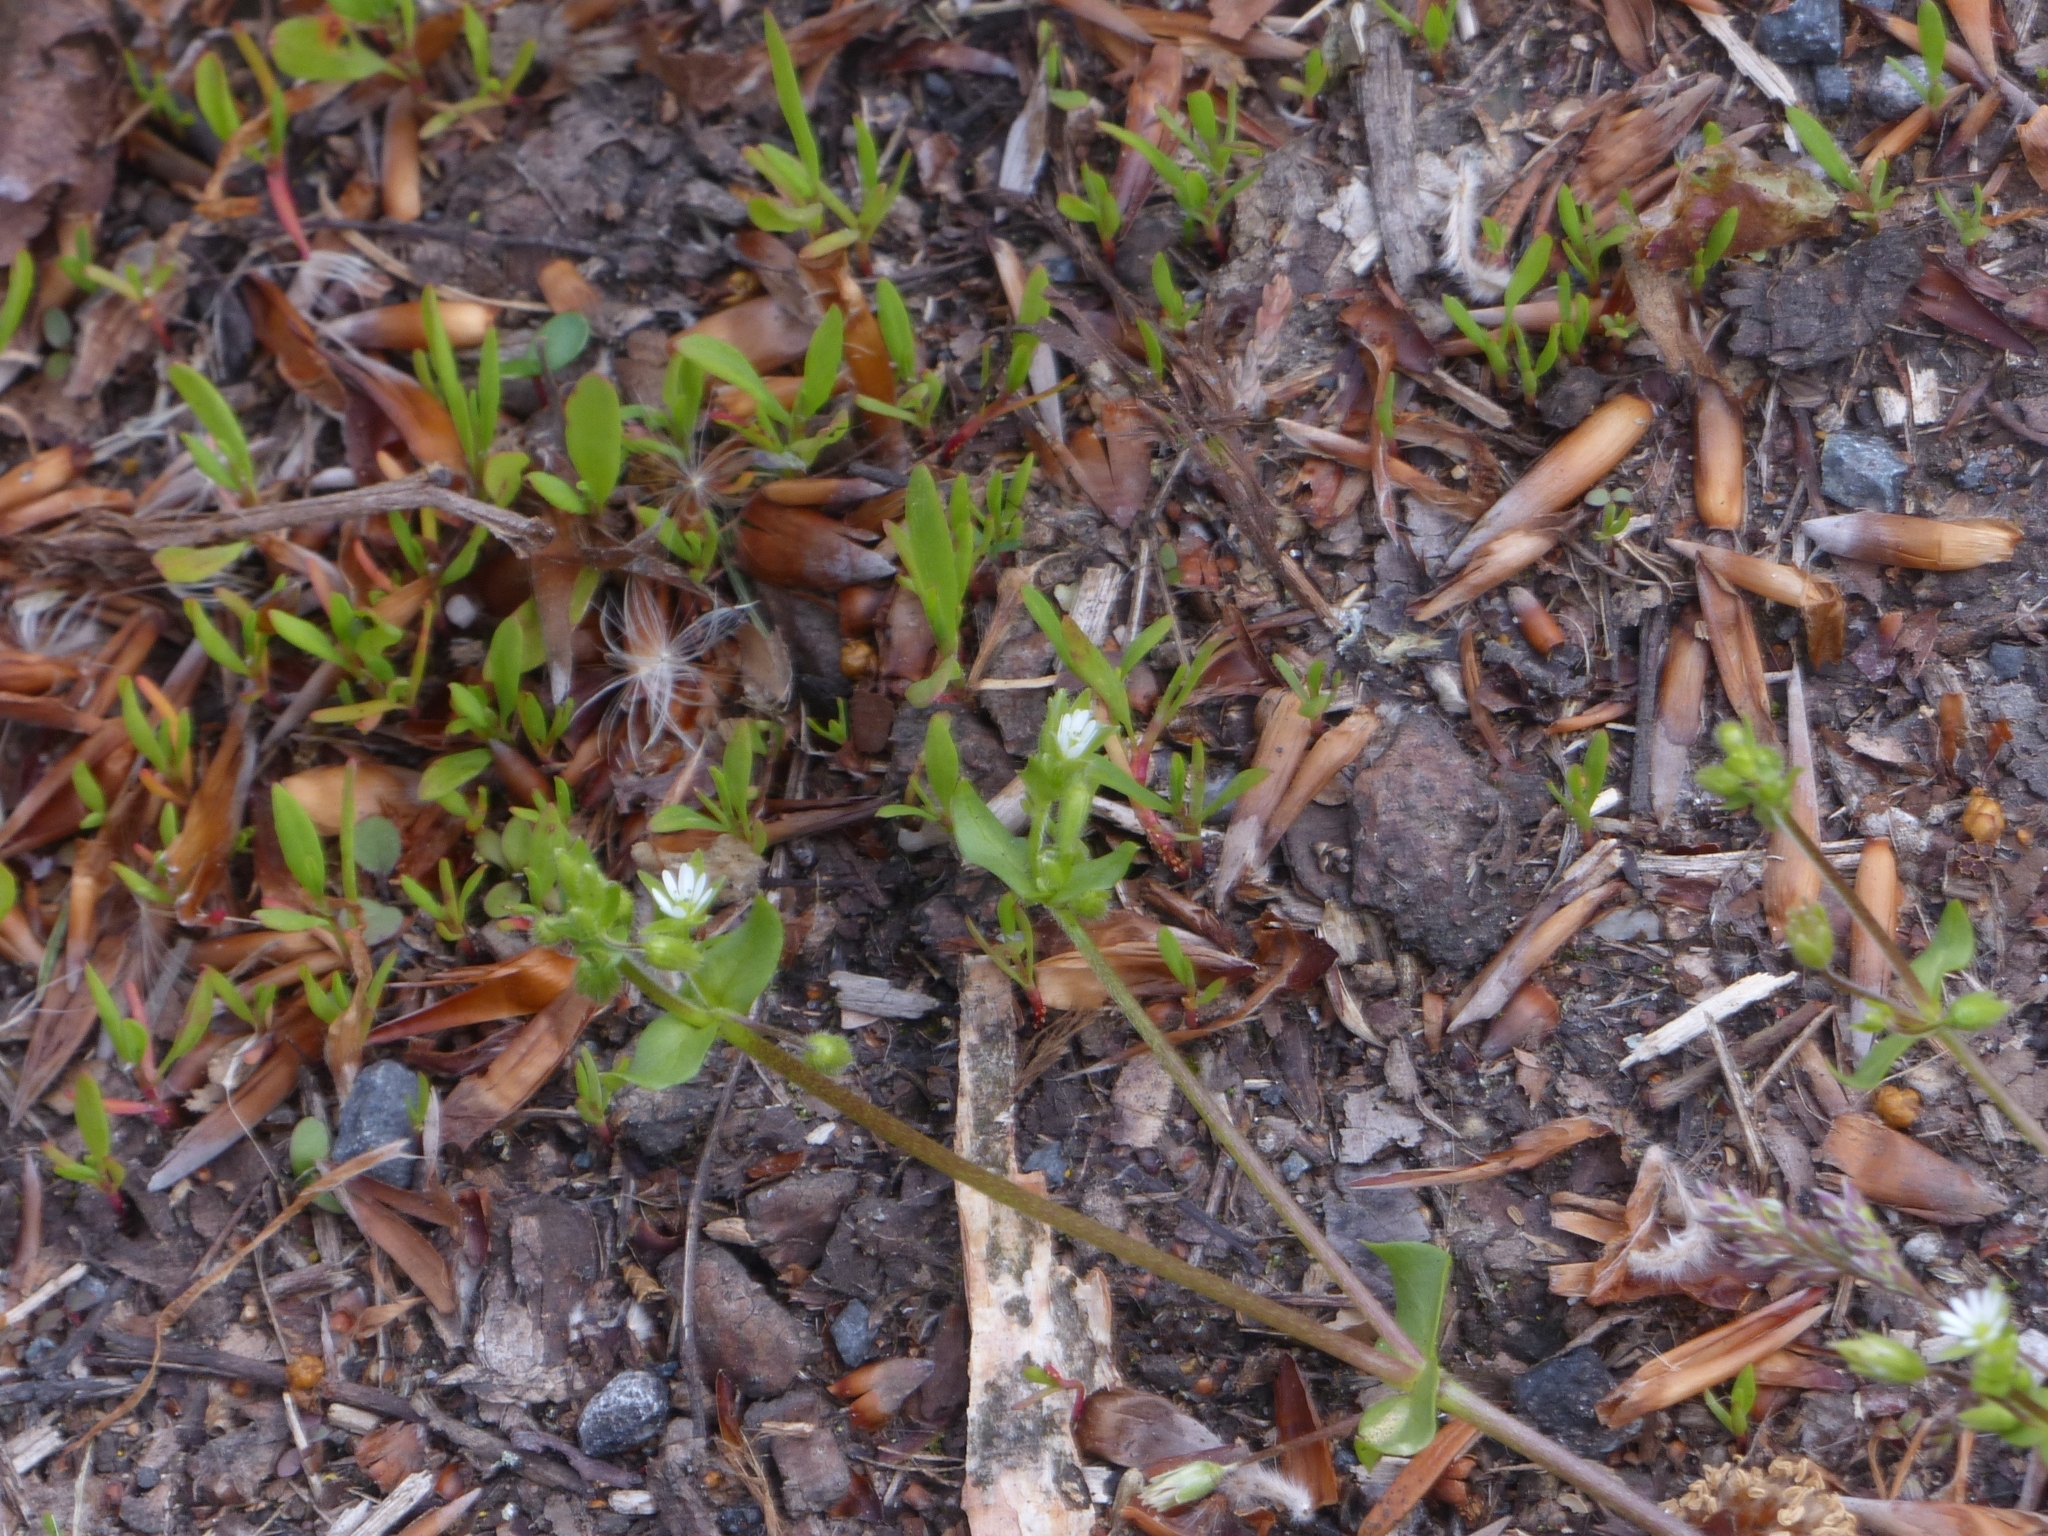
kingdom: Plantae
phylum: Tracheophyta
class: Magnoliopsida
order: Caryophyllales
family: Caryophyllaceae
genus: Stellaria
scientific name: Stellaria media
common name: Common chickweed
